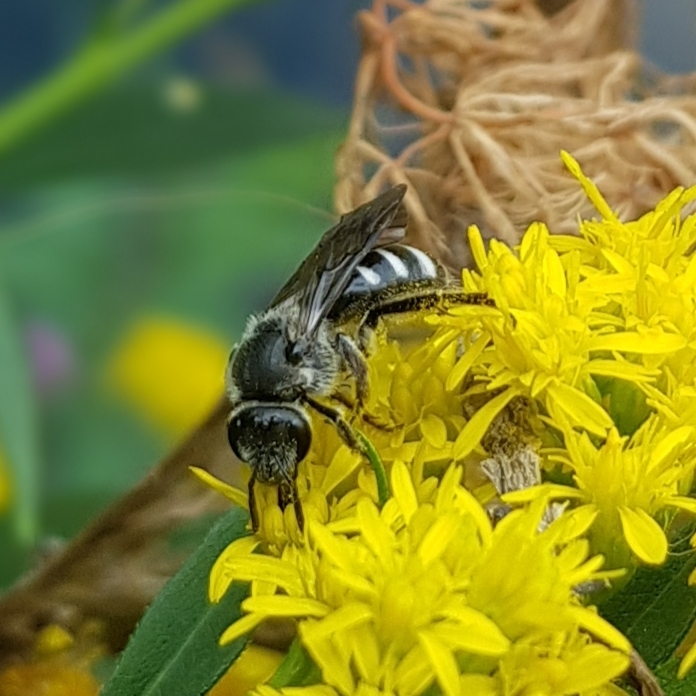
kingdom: Animalia
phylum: Arthropoda
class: Insecta
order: Hymenoptera
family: Halictidae
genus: Lasioglossum
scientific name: Lasioglossum sexnotatum
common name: Ashy furrow bee
